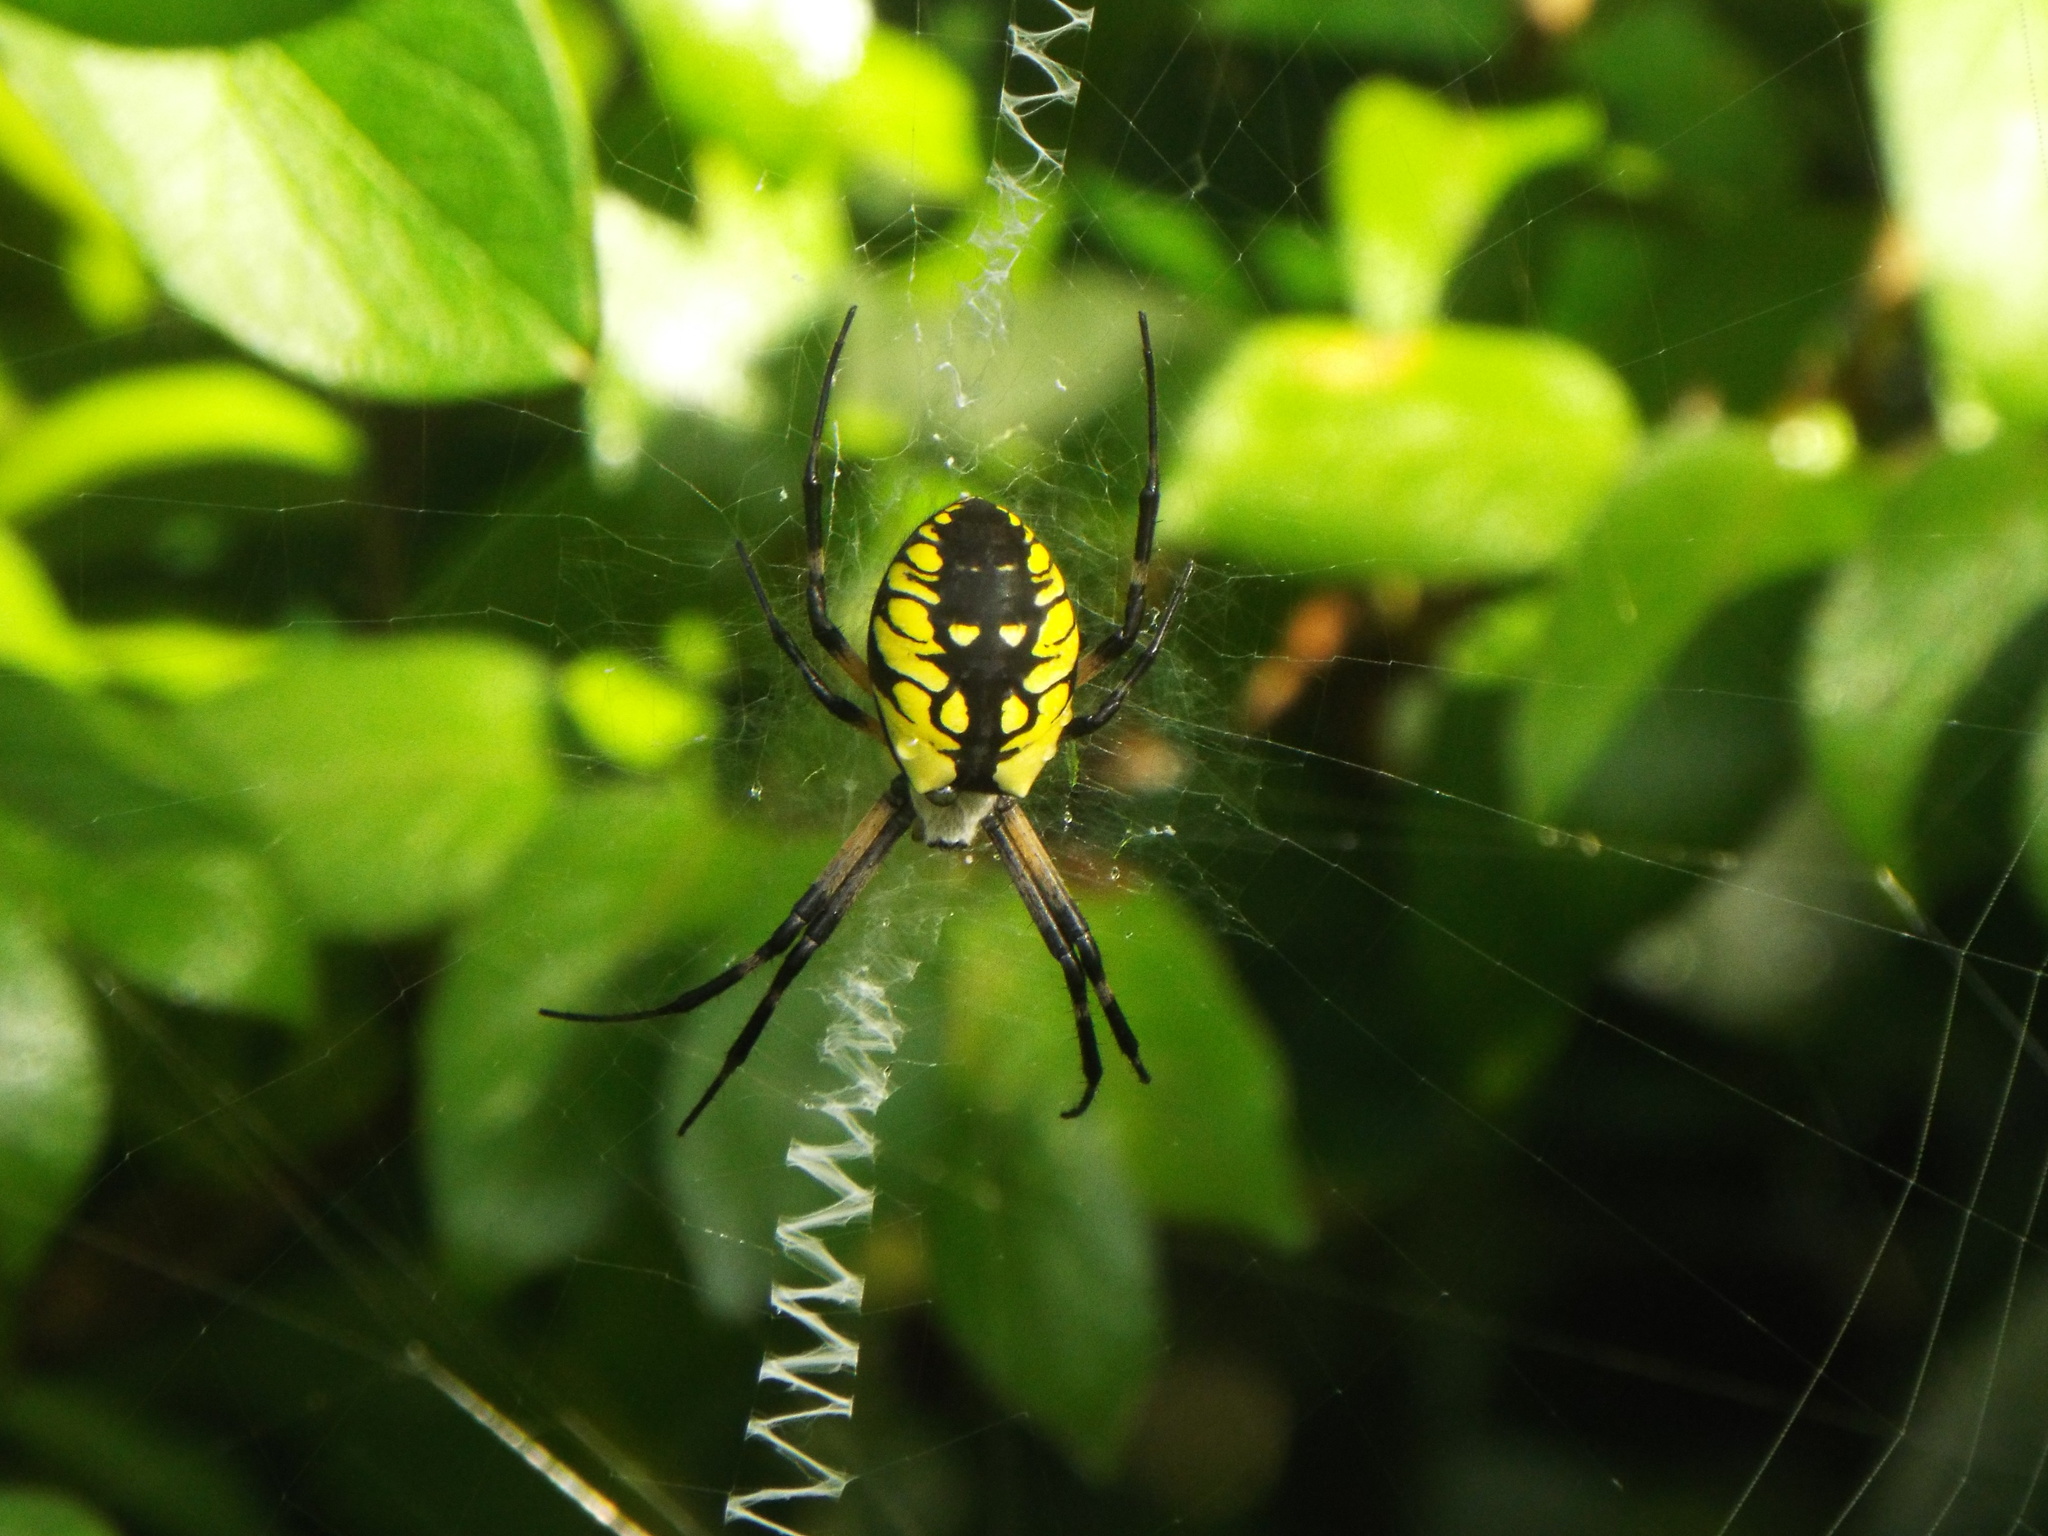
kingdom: Animalia
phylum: Arthropoda
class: Arachnida
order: Araneae
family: Araneidae
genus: Argiope
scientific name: Argiope aurantia
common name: Orb weavers
